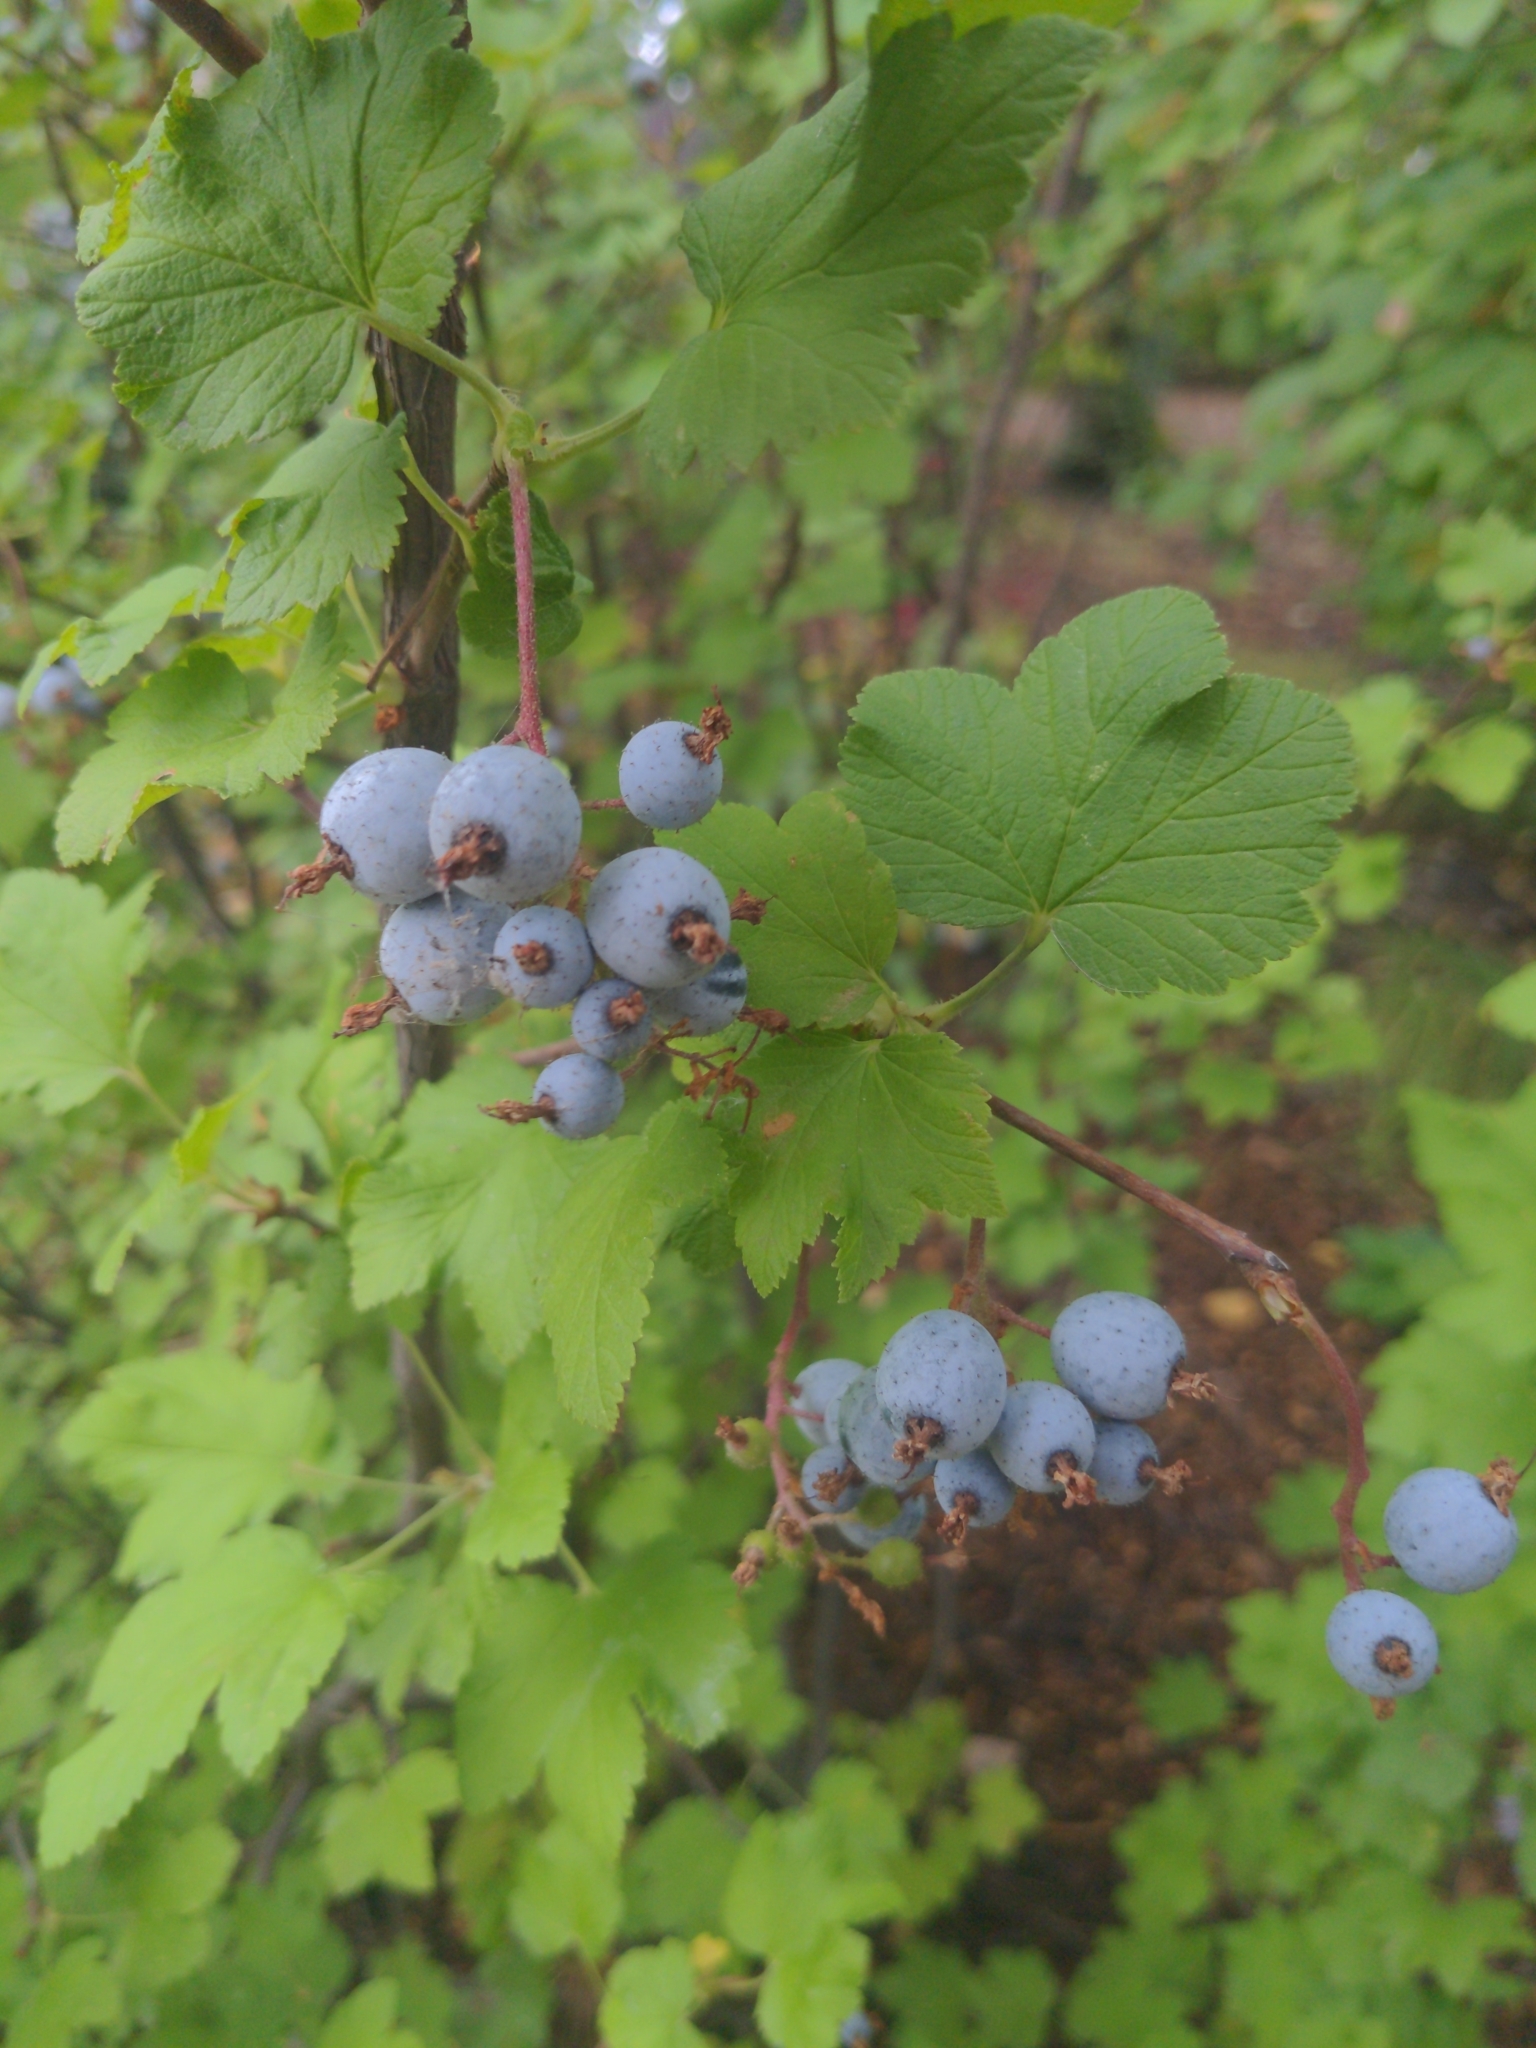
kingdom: Plantae
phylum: Tracheophyta
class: Magnoliopsida
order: Saxifragales
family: Grossulariaceae
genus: Ribes
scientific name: Ribes sanguineum
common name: Flowering currant
